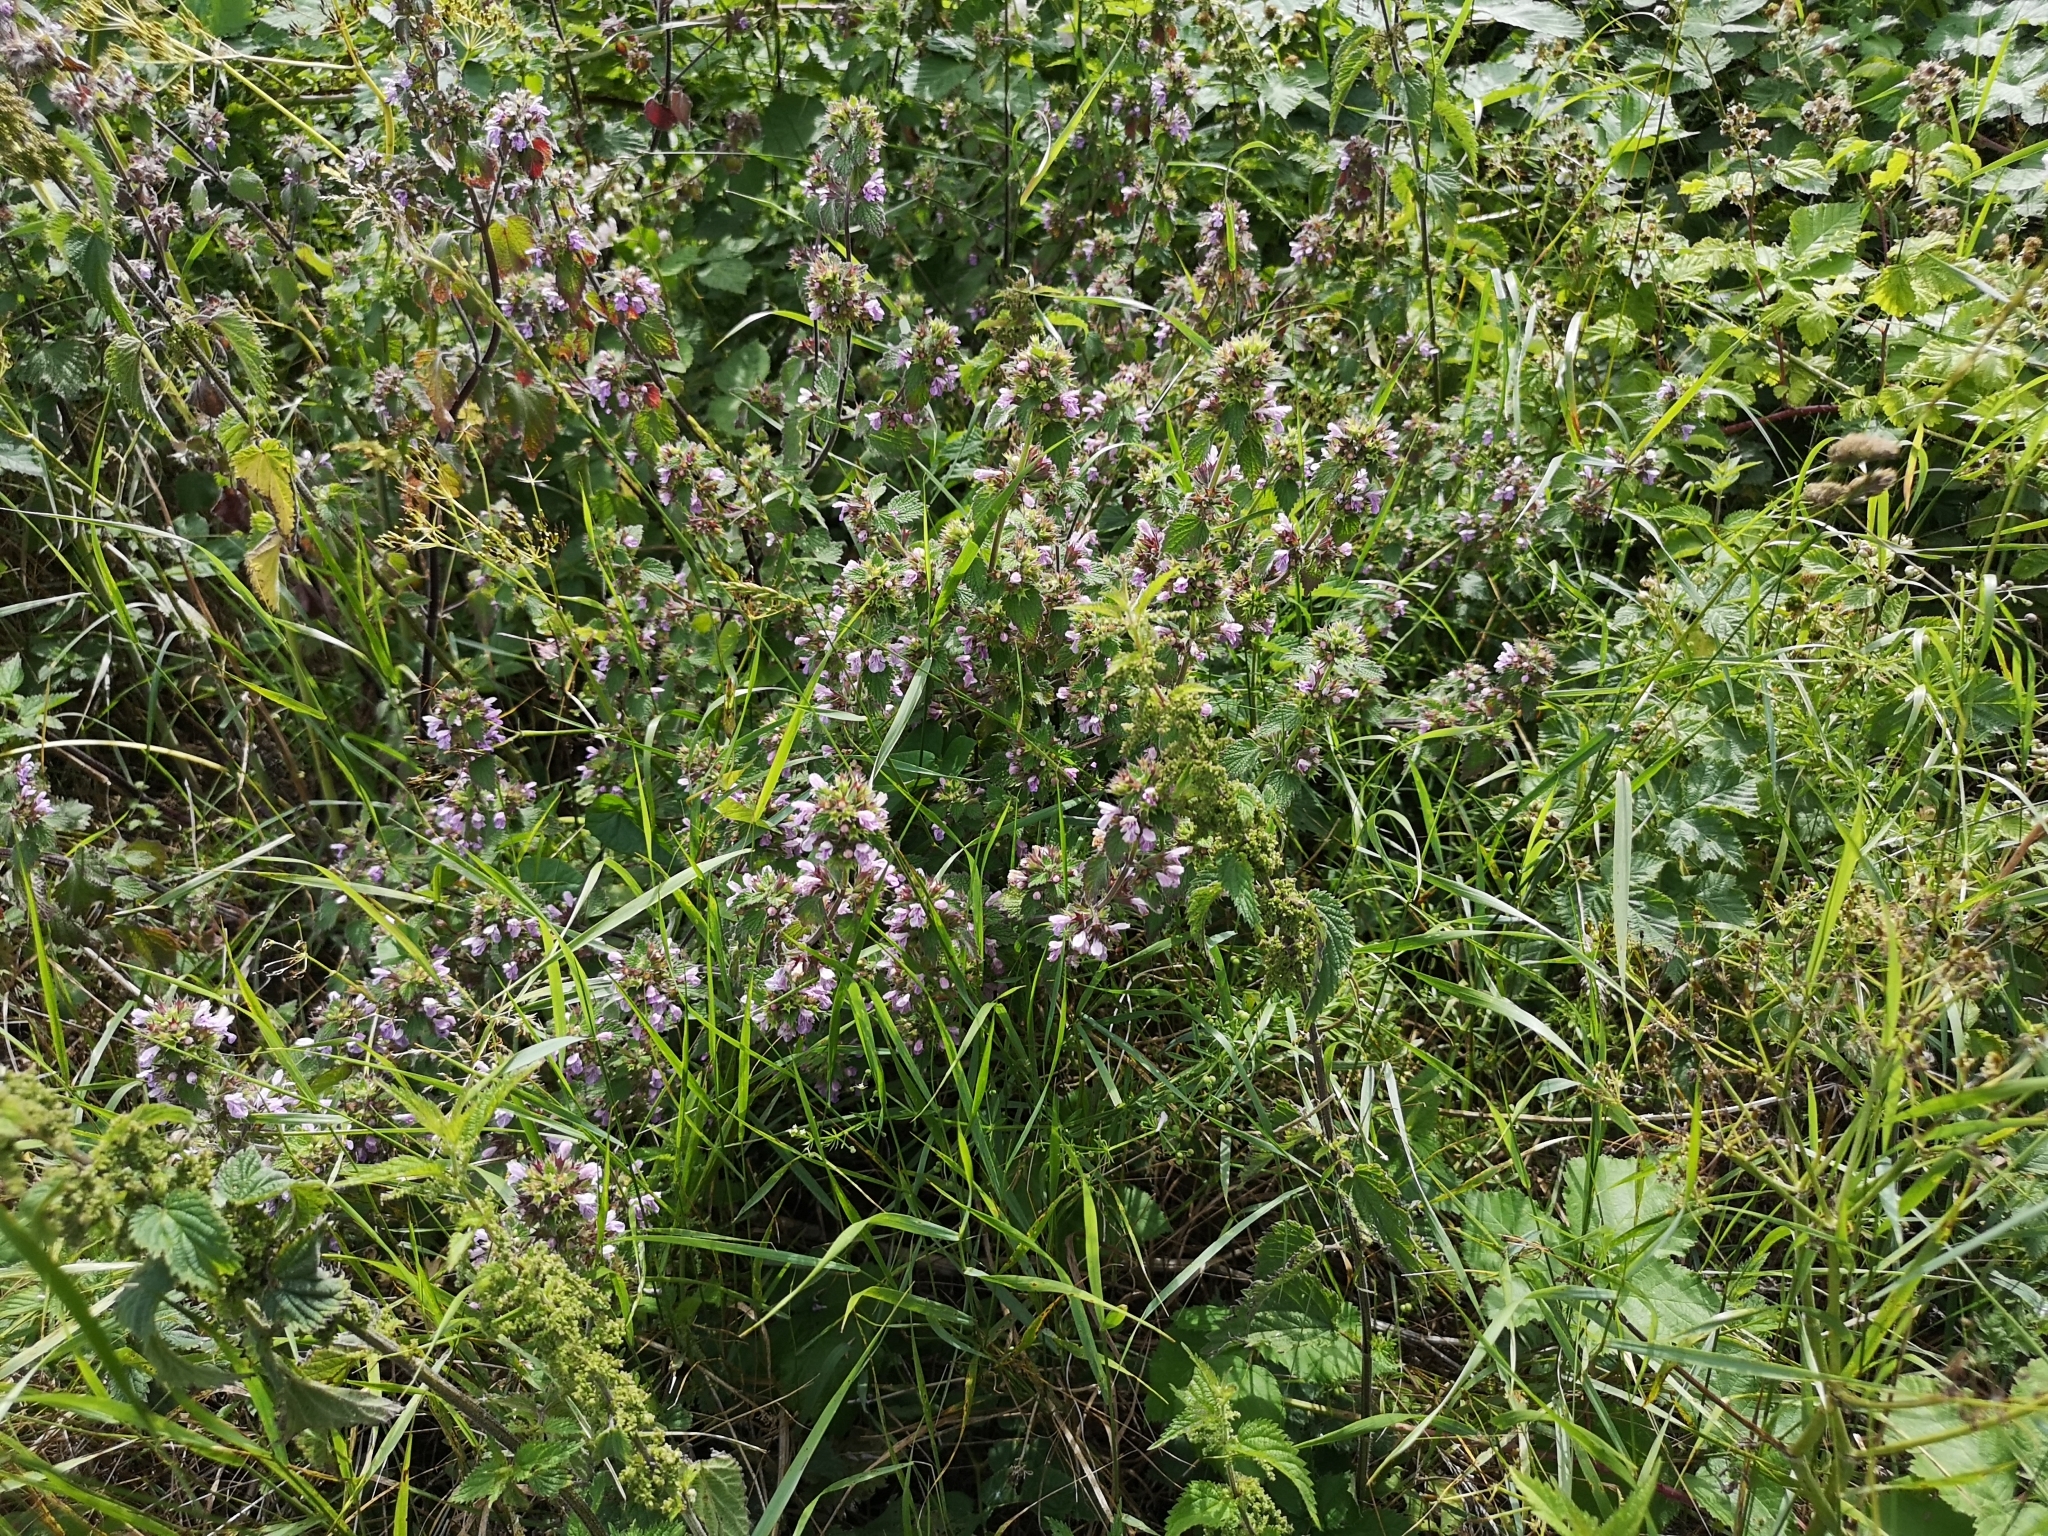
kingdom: Plantae
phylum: Tracheophyta
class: Magnoliopsida
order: Lamiales
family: Lamiaceae
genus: Ballota
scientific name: Ballota nigra
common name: Black horehound
